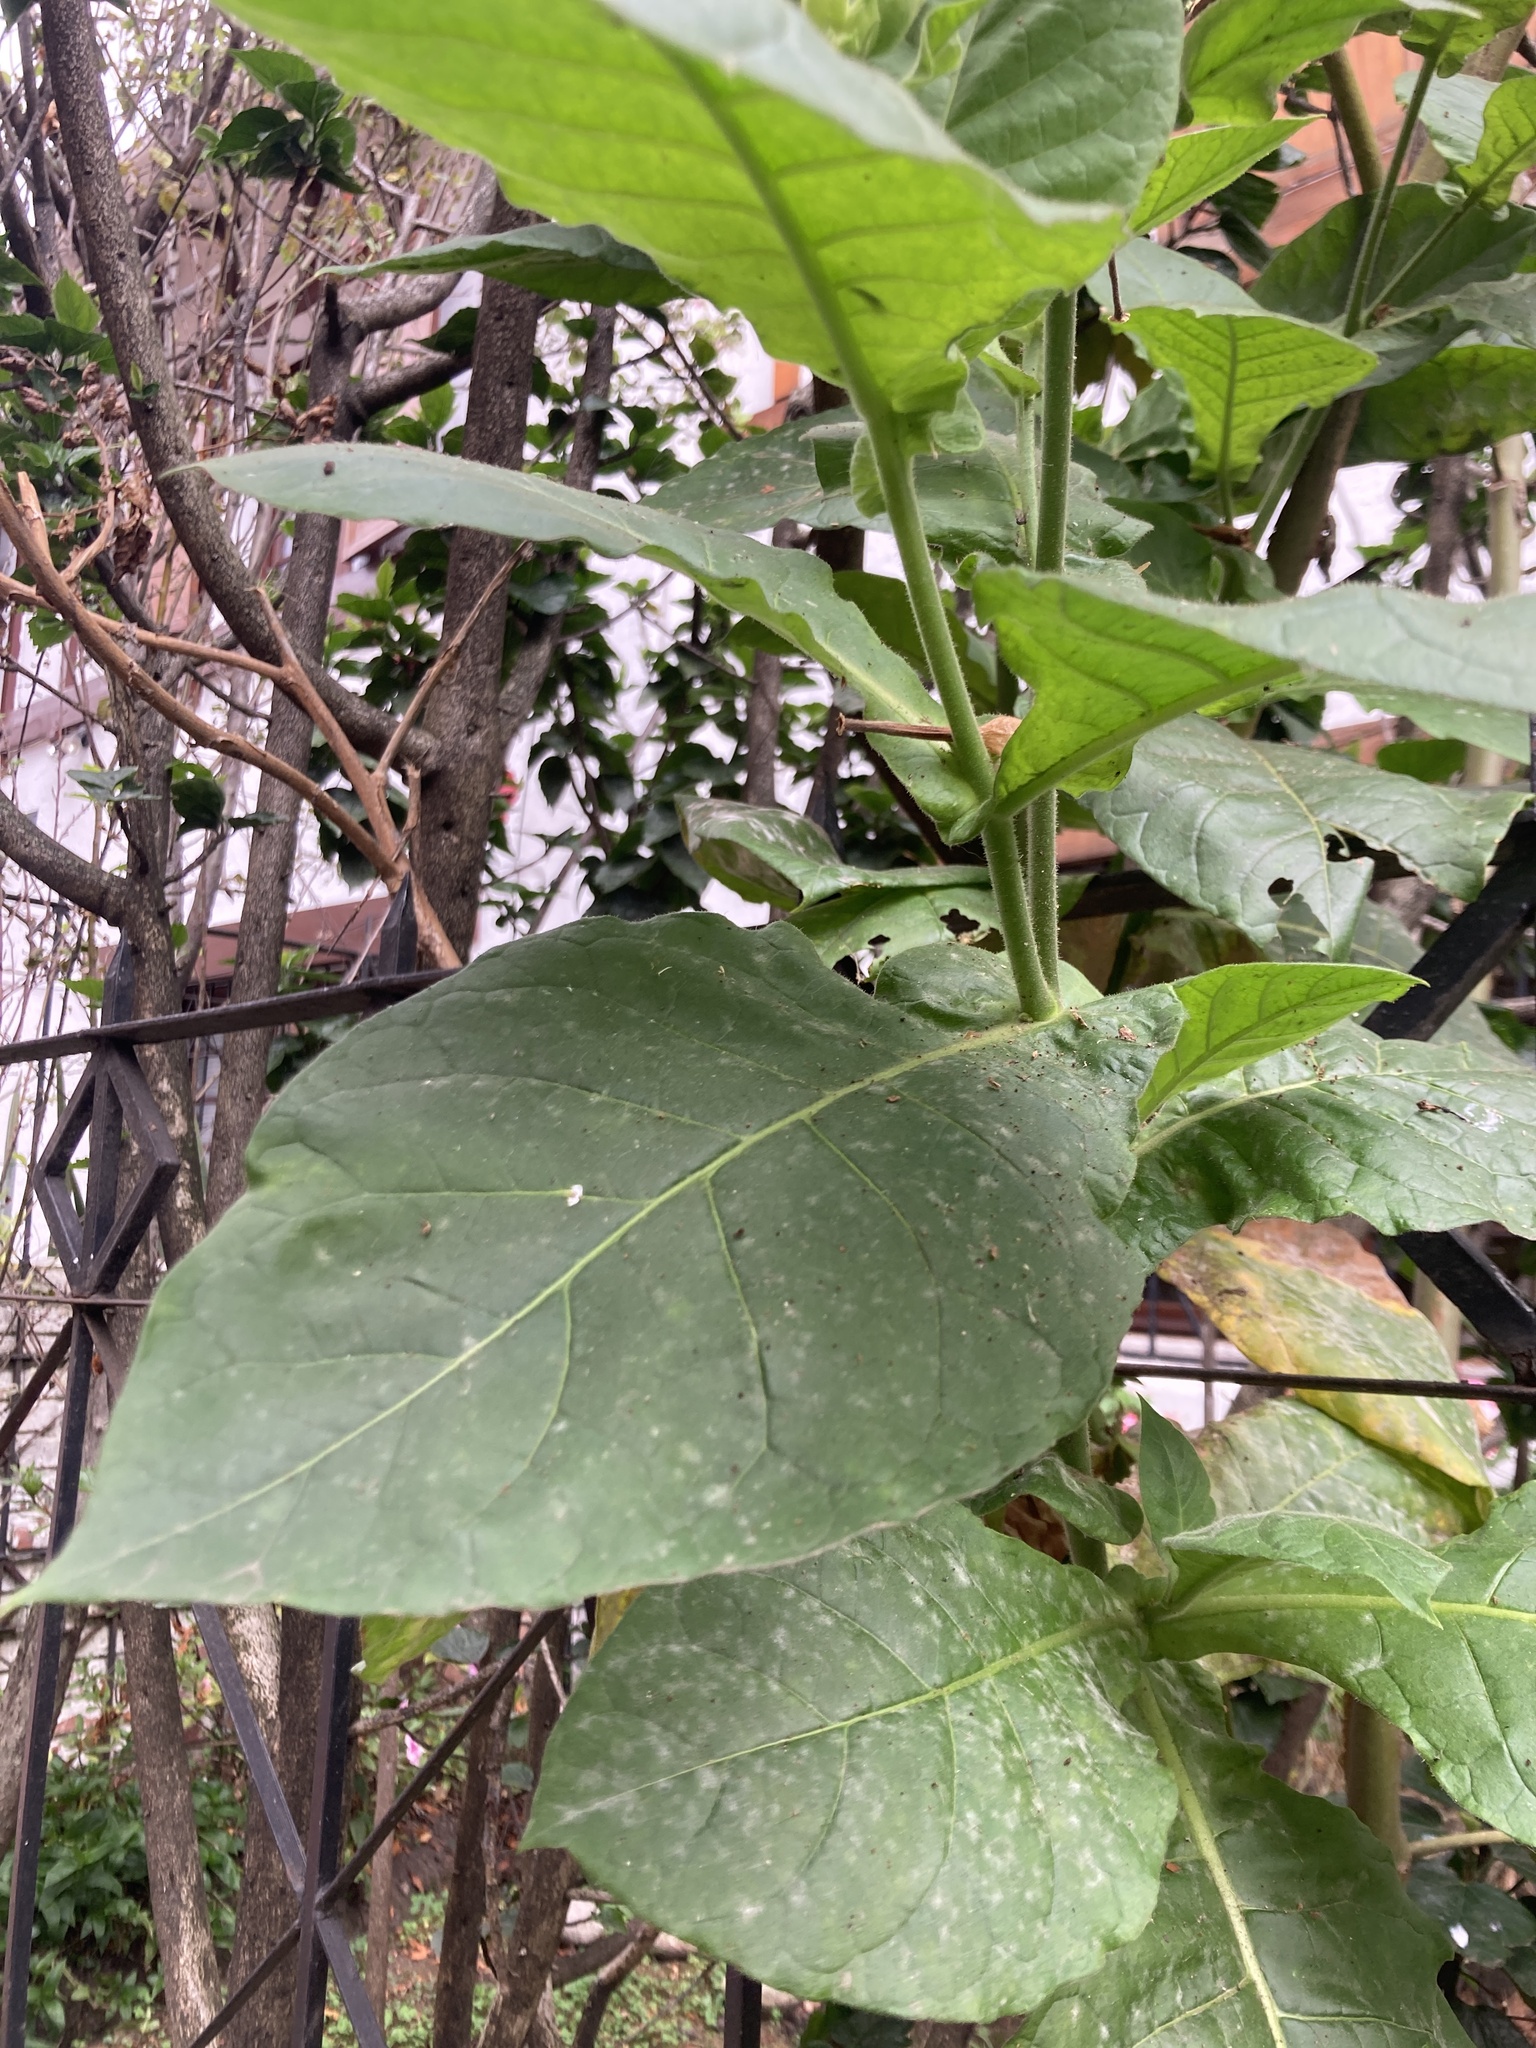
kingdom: Plantae
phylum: Tracheophyta
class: Magnoliopsida
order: Solanales
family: Solanaceae
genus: Nicotiana
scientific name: Nicotiana tabacum
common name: Tobacco
